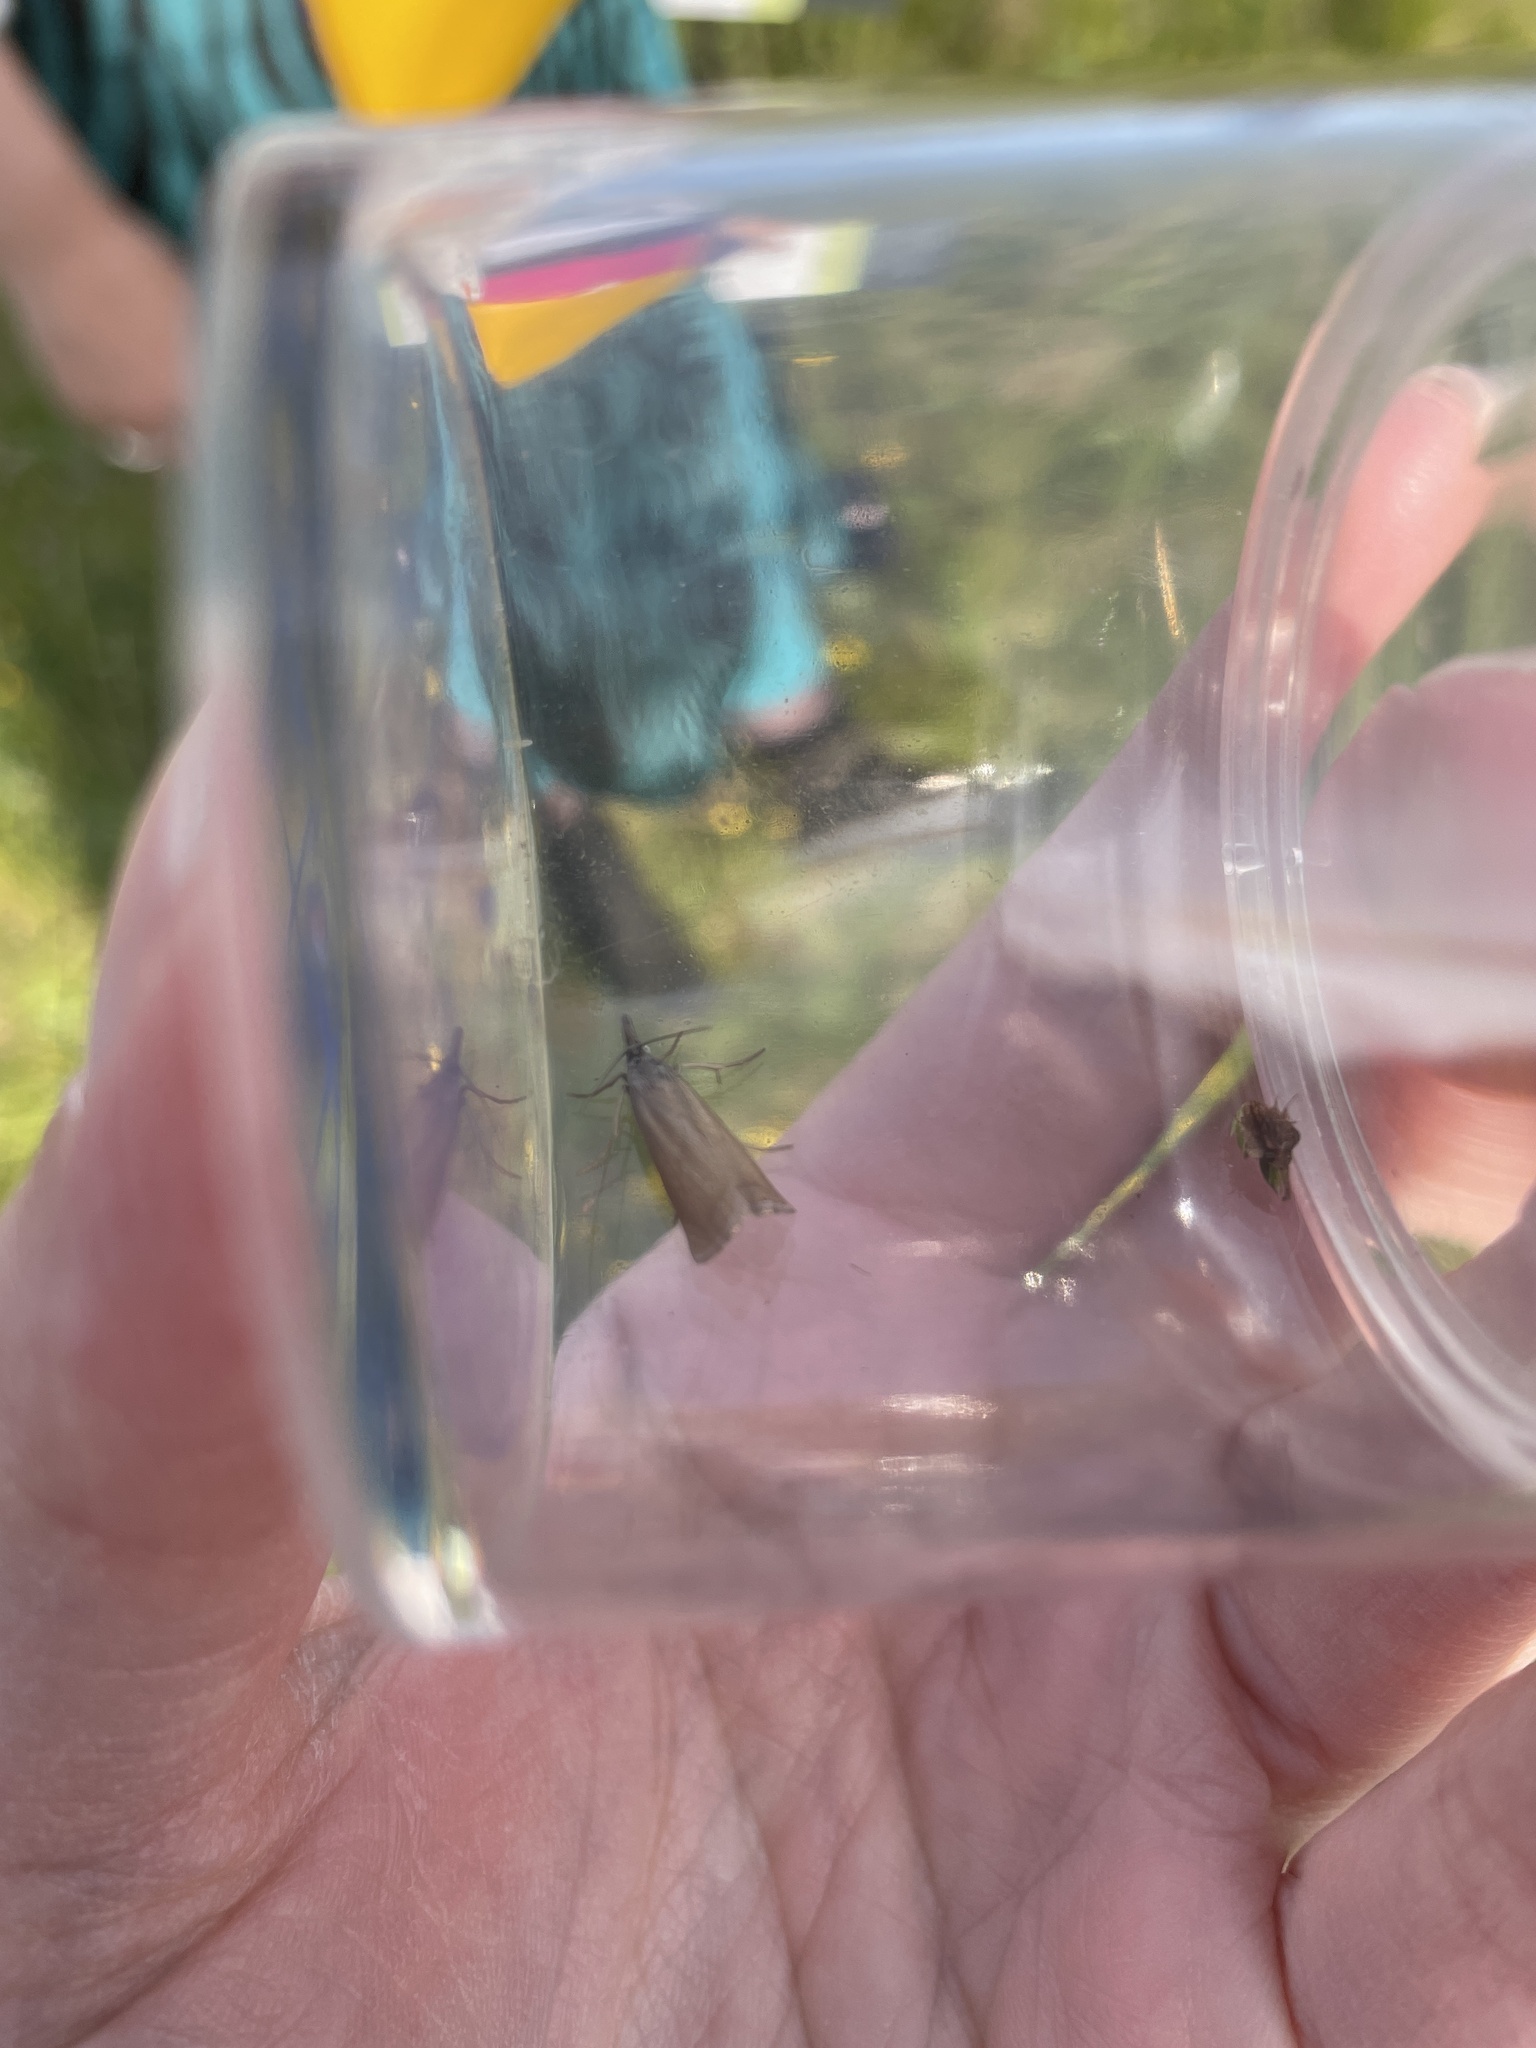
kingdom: Animalia
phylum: Arthropoda
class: Insecta
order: Lepidoptera
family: Crambidae
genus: Chrysoteuchia
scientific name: Chrysoteuchia culmella
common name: Garden grass-veneer
